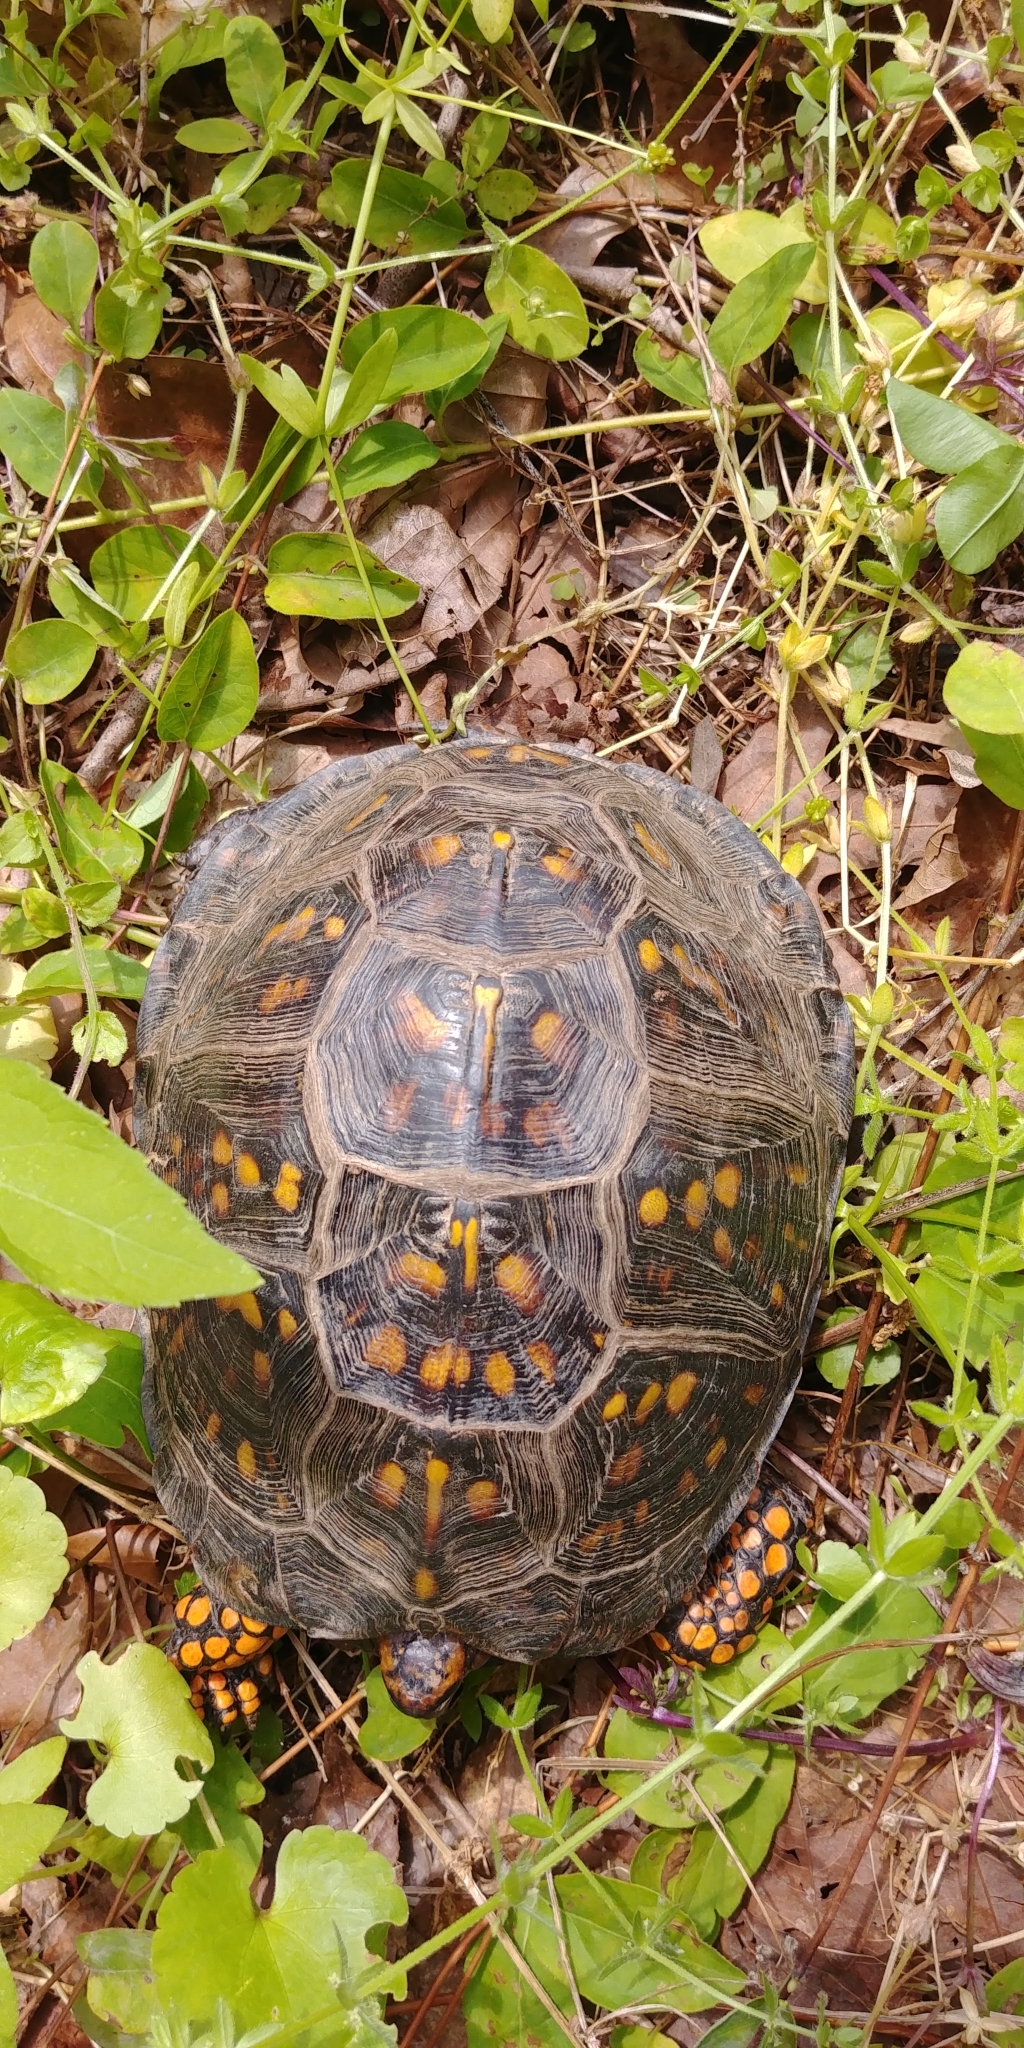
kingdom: Animalia
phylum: Chordata
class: Testudines
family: Emydidae
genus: Terrapene
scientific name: Terrapene carolina
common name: Common box turtle
